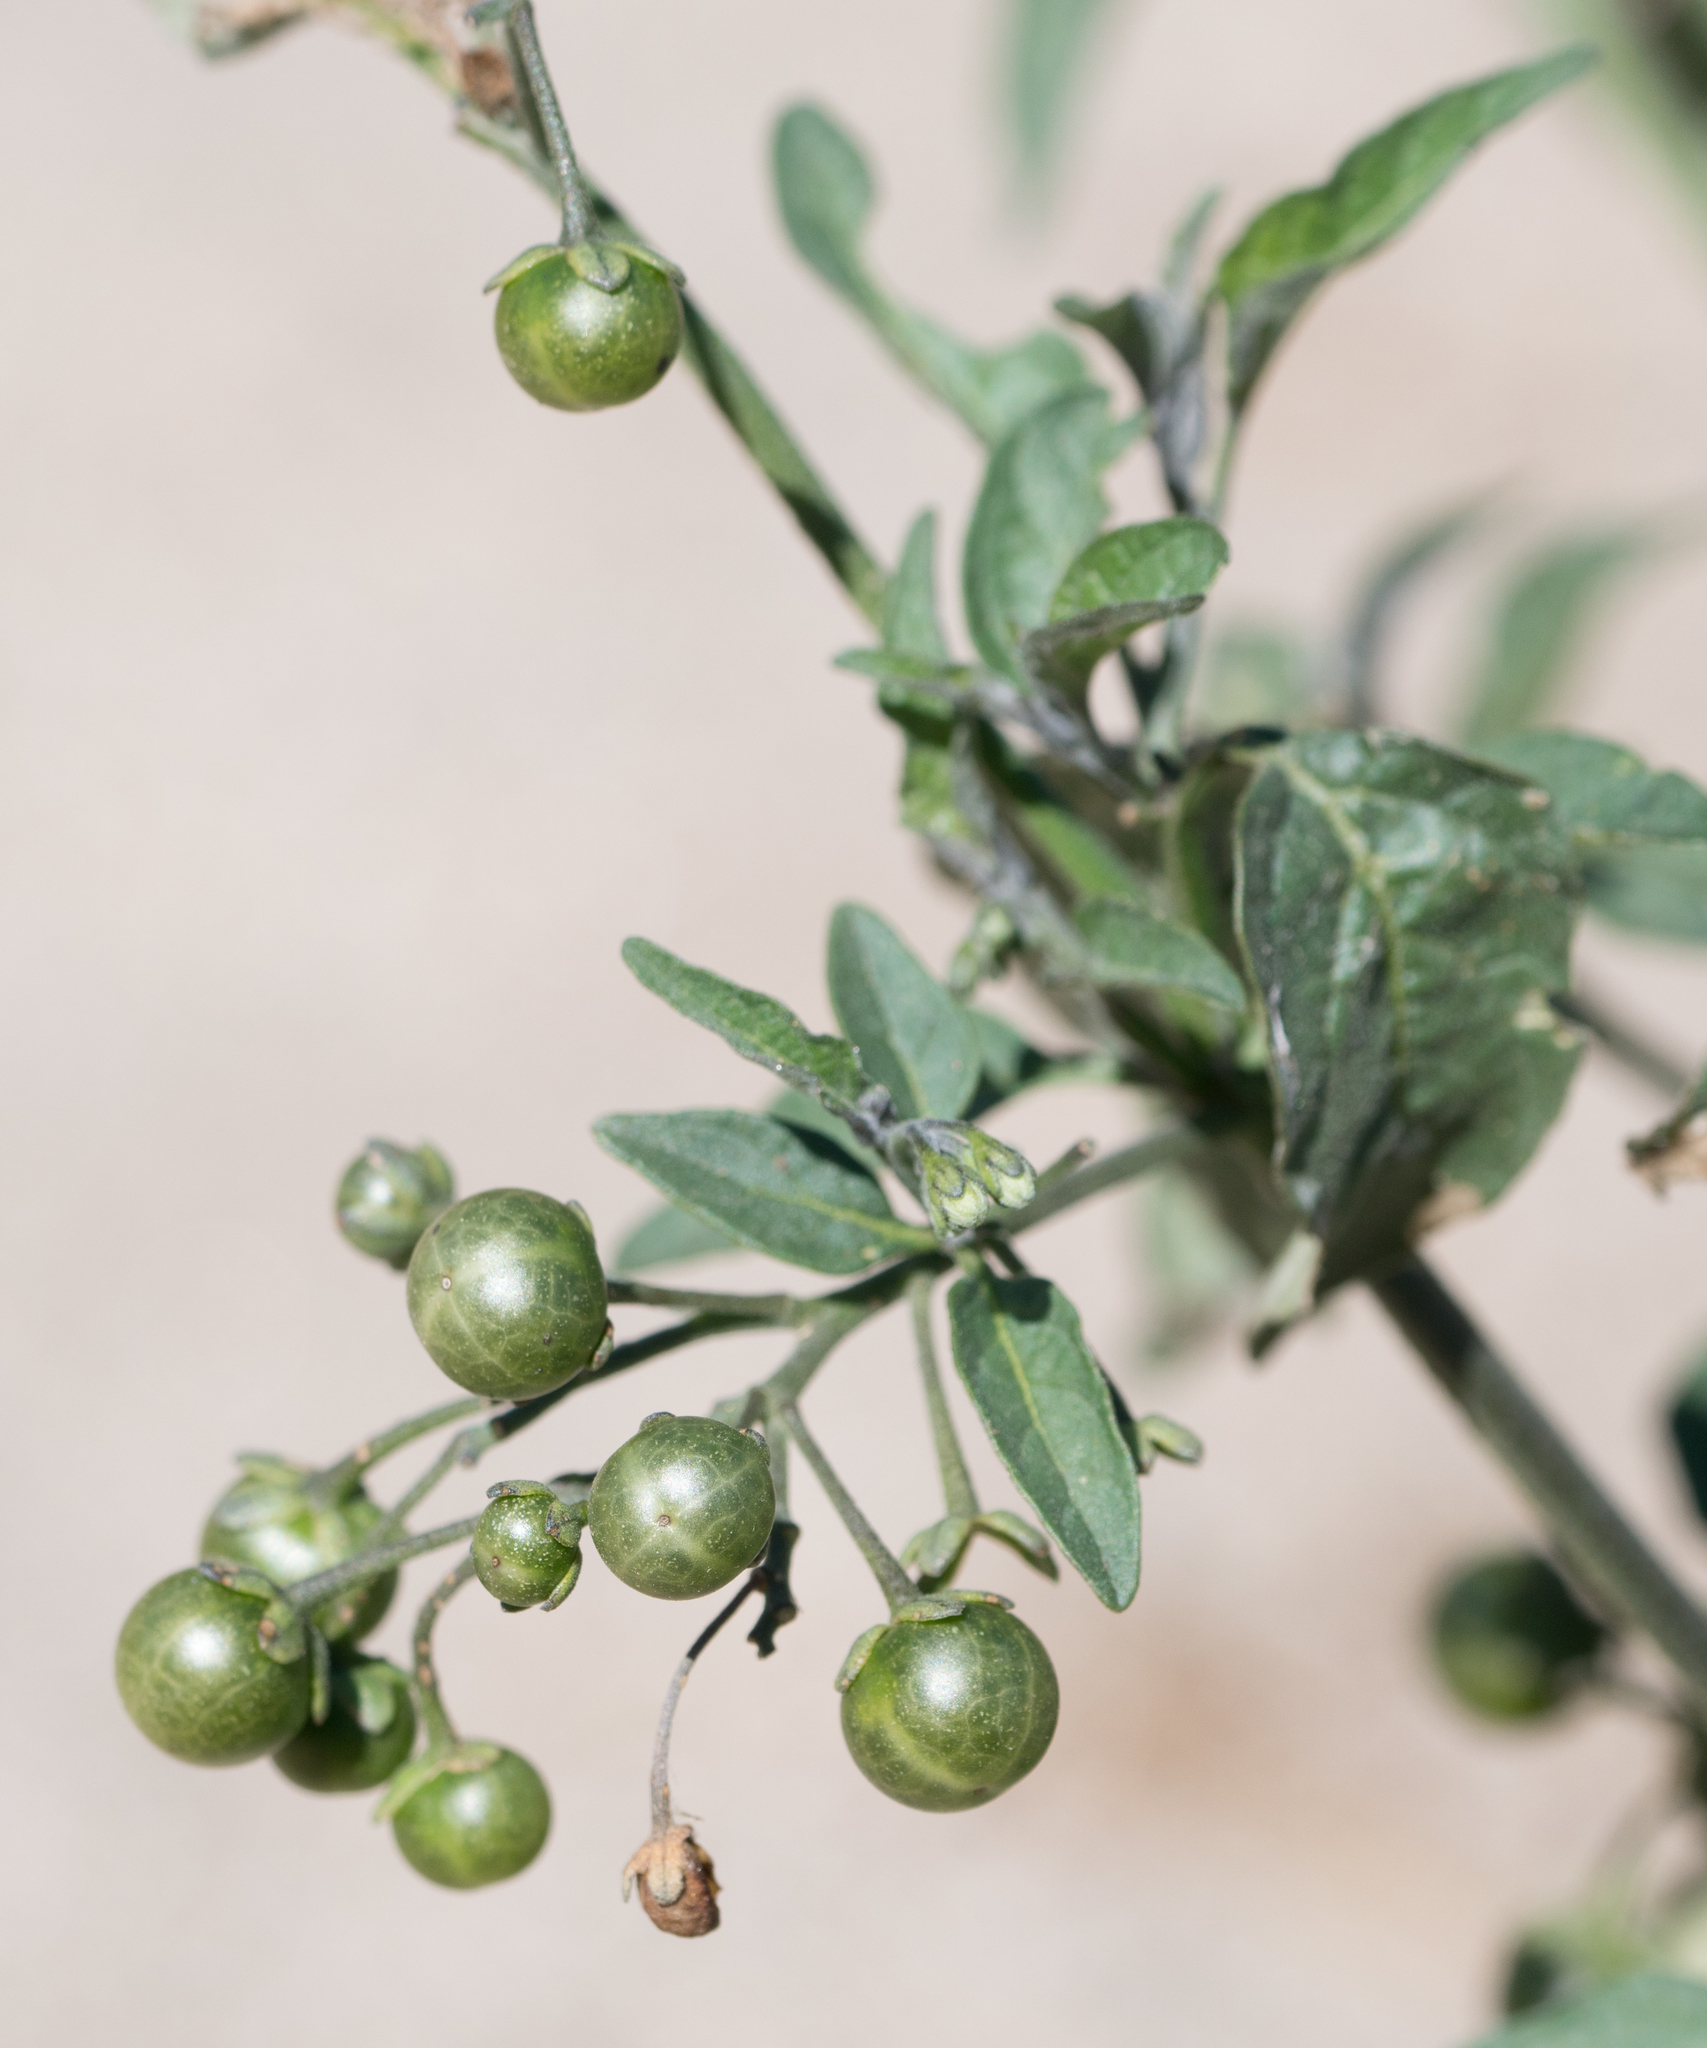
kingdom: Plantae
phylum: Tracheophyta
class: Magnoliopsida
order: Solanales
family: Solanaceae
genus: Solanum
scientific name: Solanum douglasii
